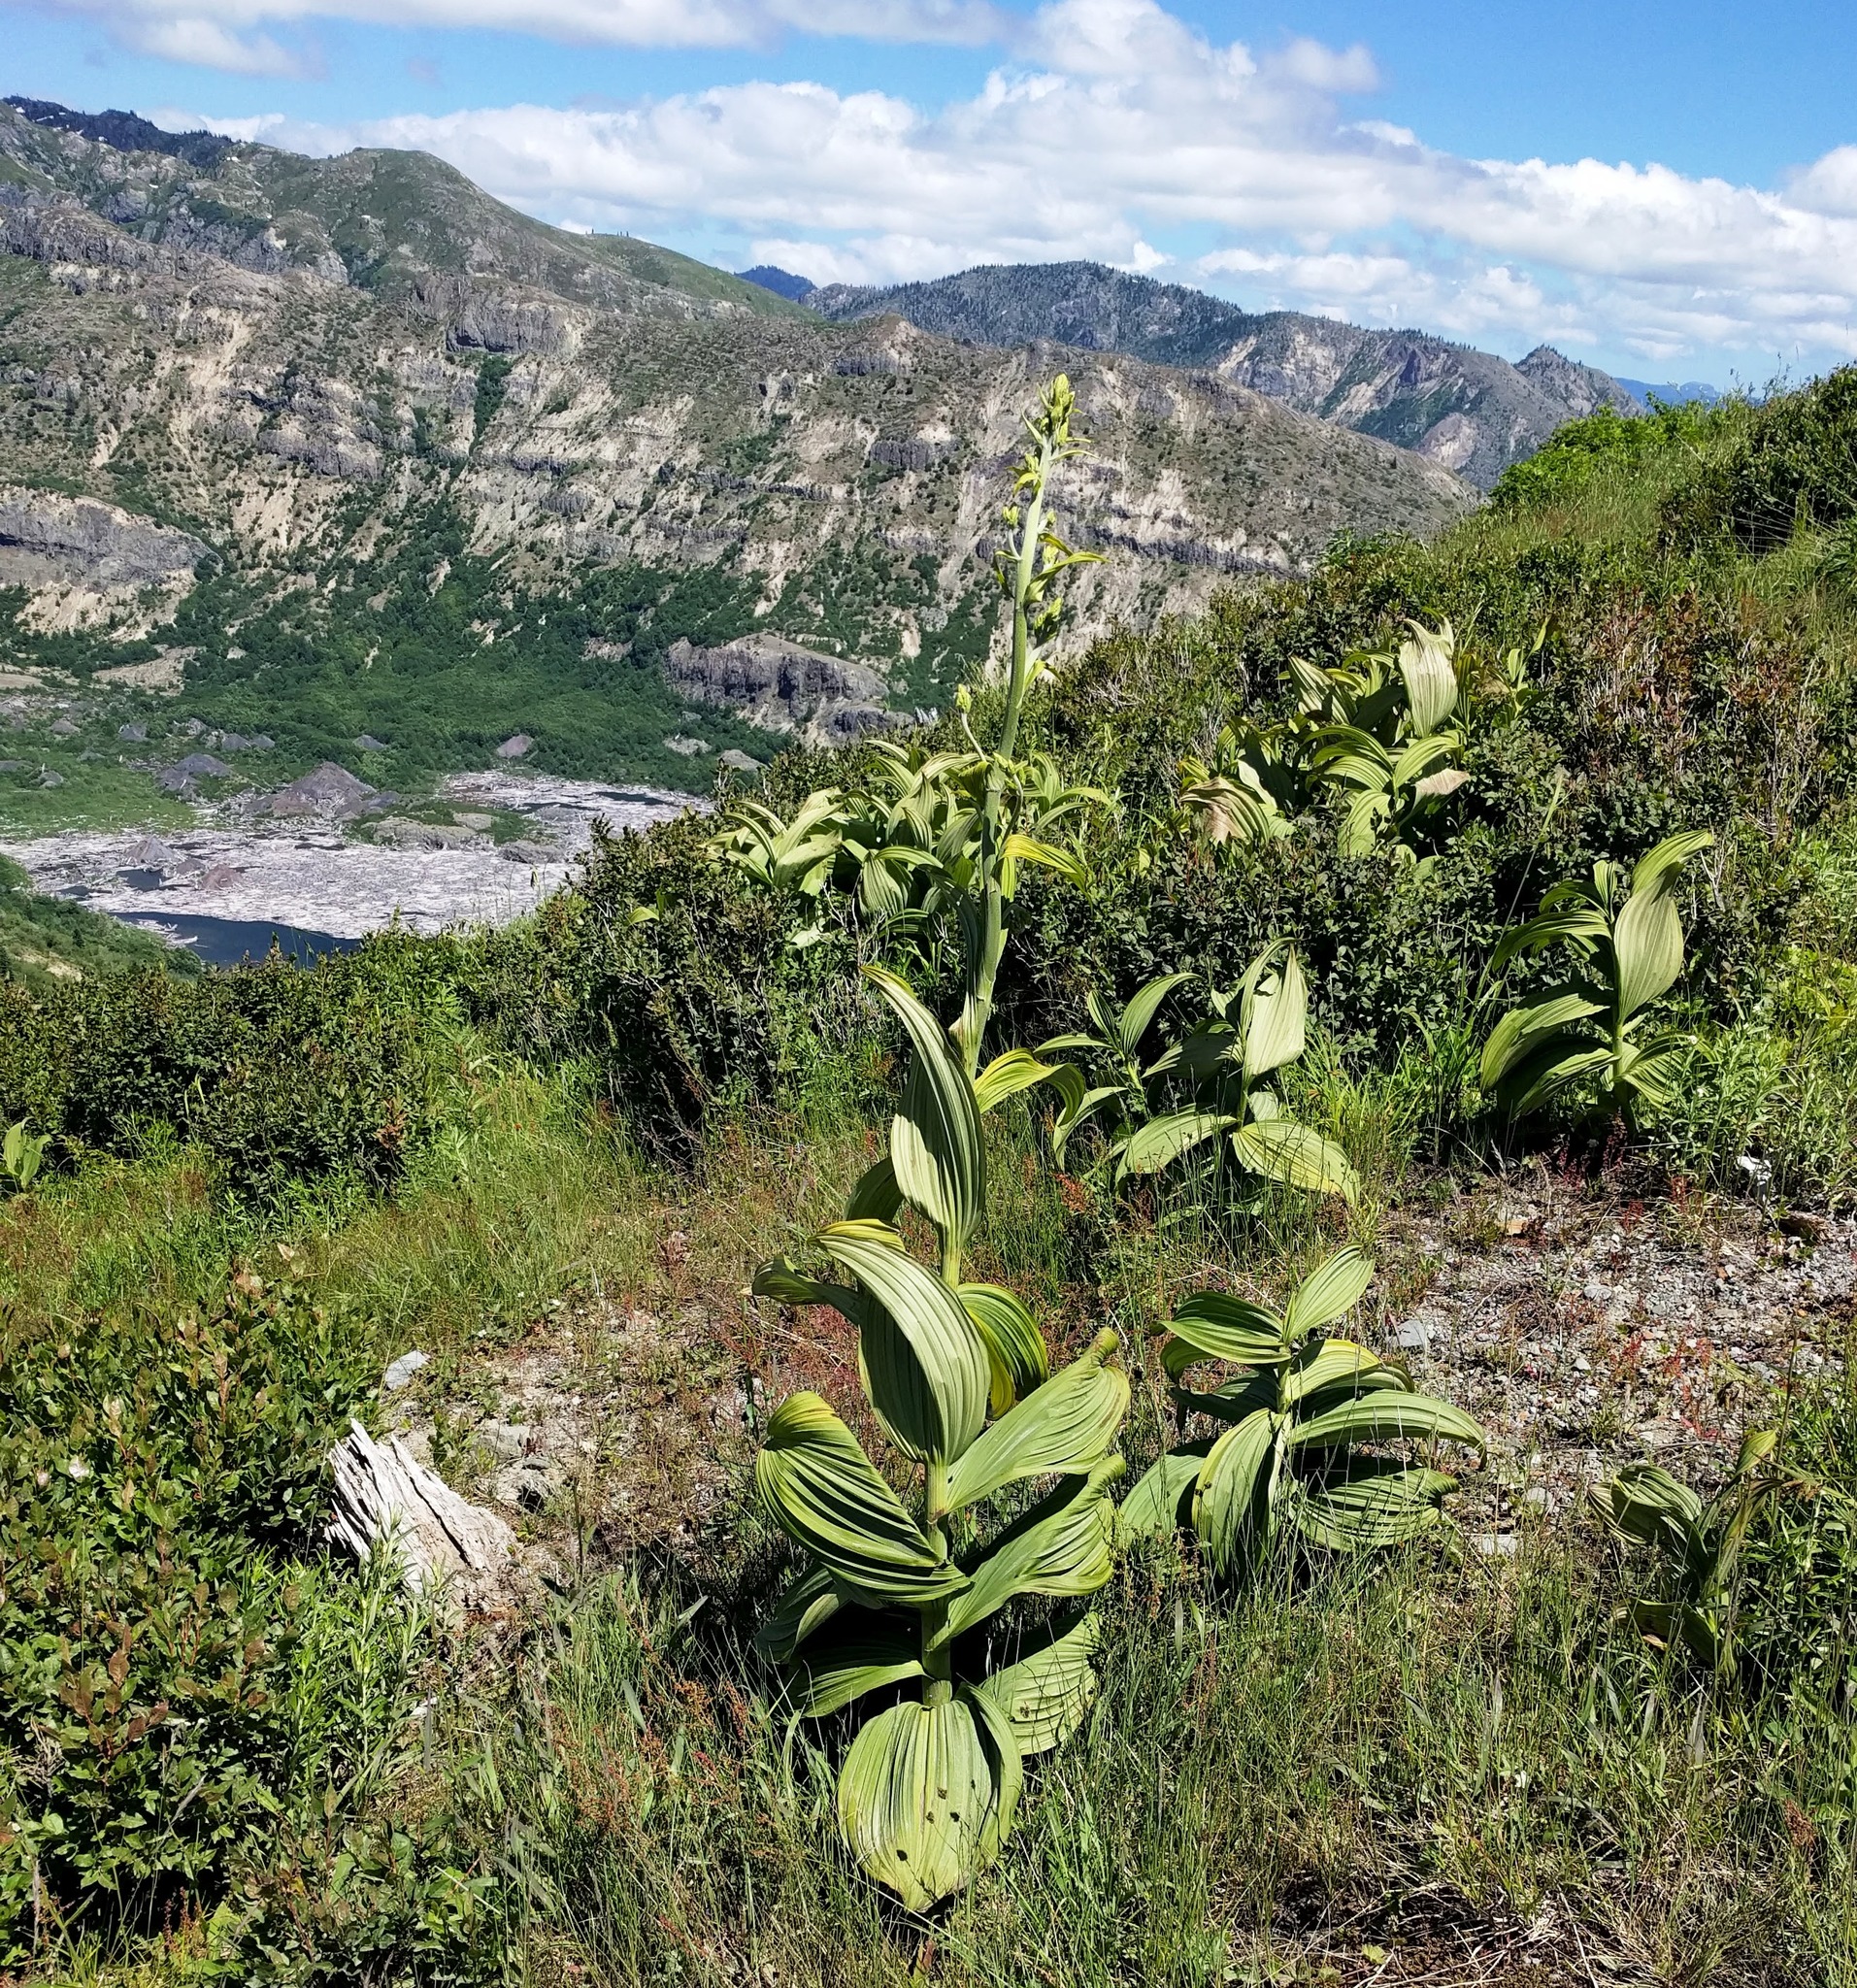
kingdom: Plantae
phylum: Tracheophyta
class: Liliopsida
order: Liliales
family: Melanthiaceae
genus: Veratrum
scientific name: Veratrum viride
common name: American false hellebore
